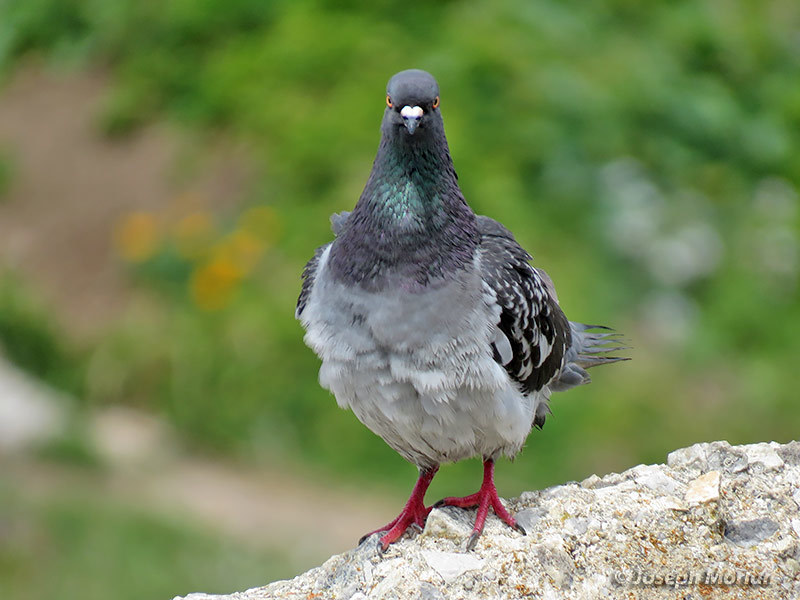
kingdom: Animalia
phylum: Chordata
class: Aves
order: Columbiformes
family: Columbidae
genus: Columba
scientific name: Columba livia
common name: Rock pigeon
